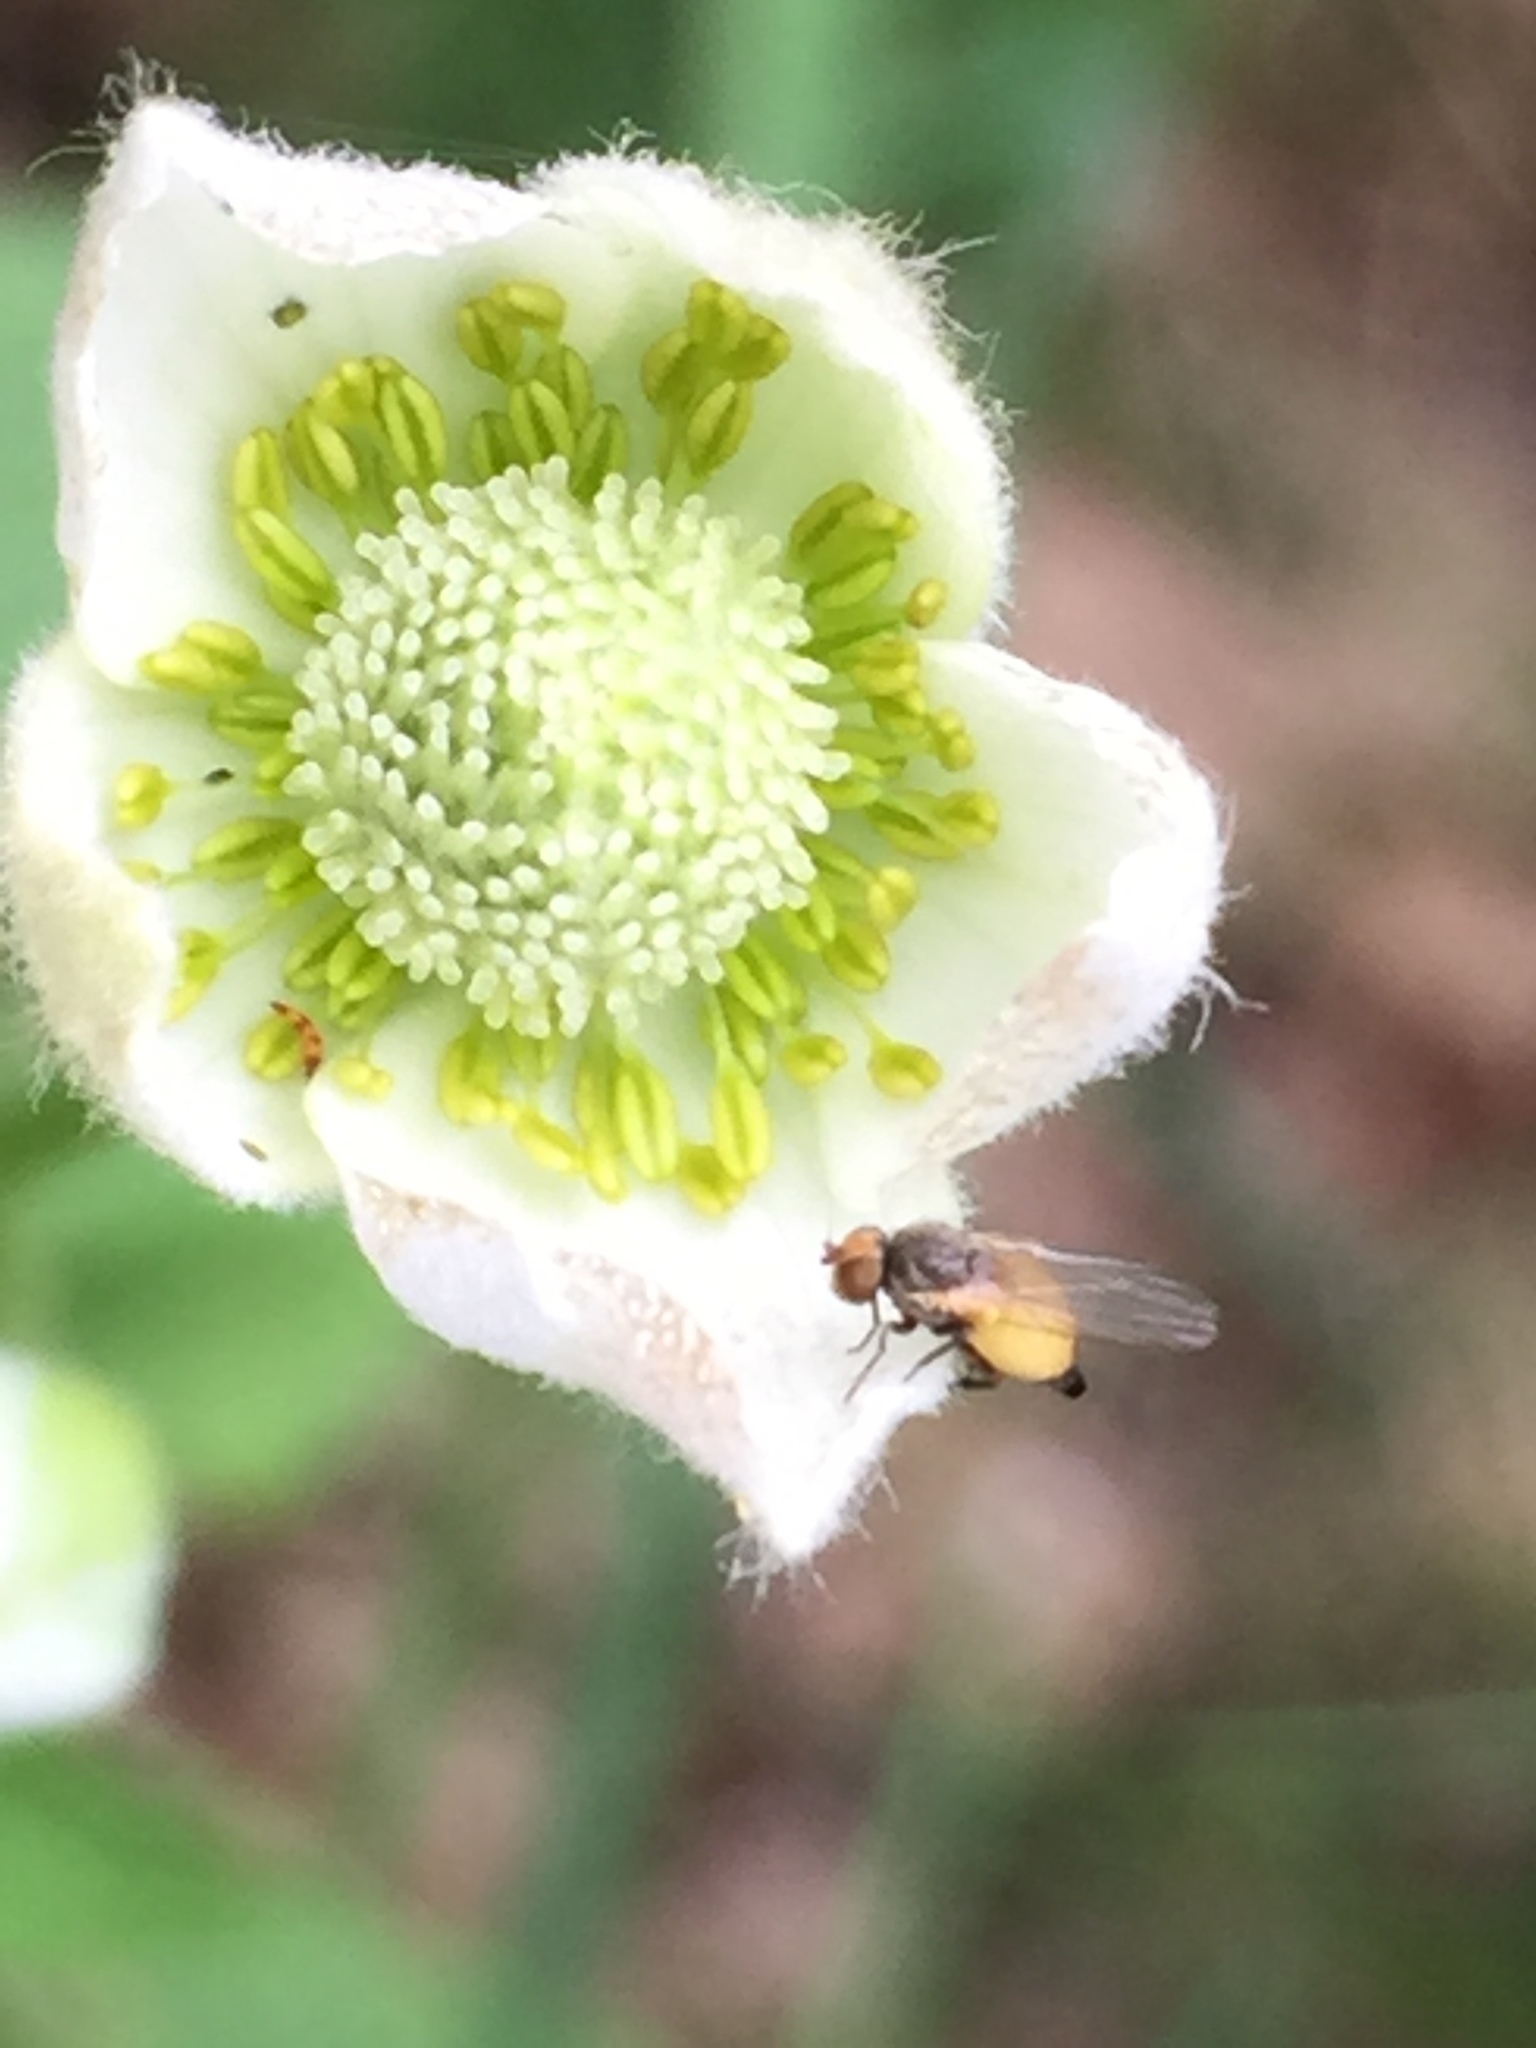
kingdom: Plantae
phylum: Tracheophyta
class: Magnoliopsida
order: Ranunculales
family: Ranunculaceae
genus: Anemone
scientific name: Anemone virginiana
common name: Tall anemone
